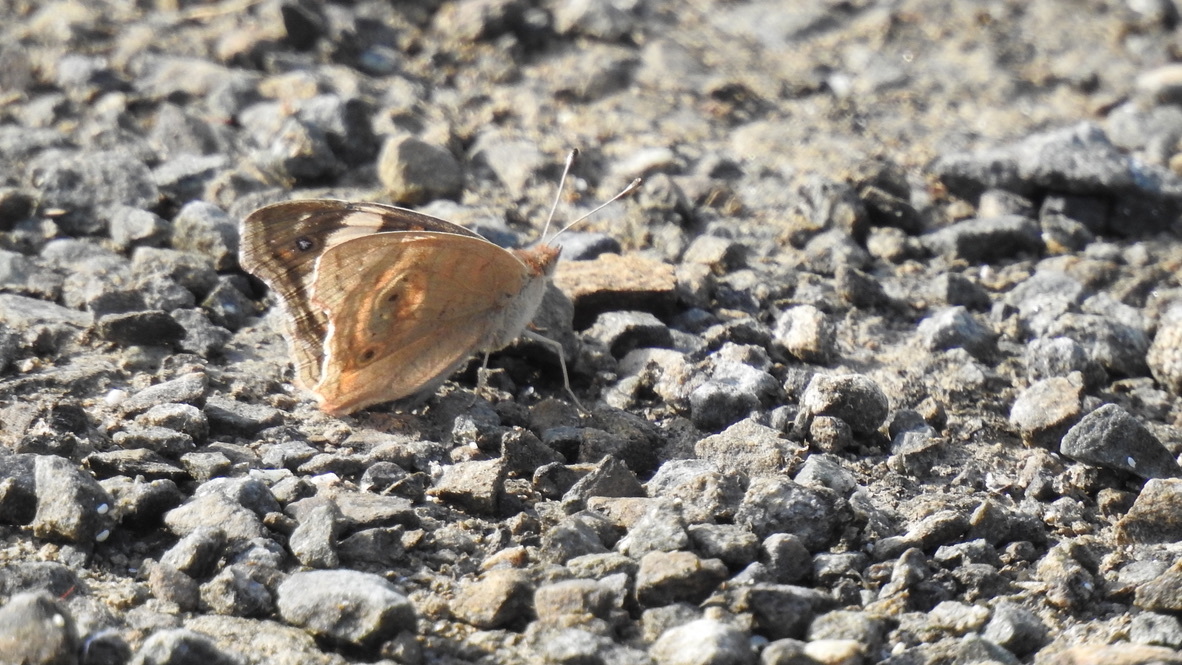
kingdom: Animalia
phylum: Arthropoda
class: Insecta
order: Lepidoptera
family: Nymphalidae
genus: Junonia
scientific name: Junonia grisea
